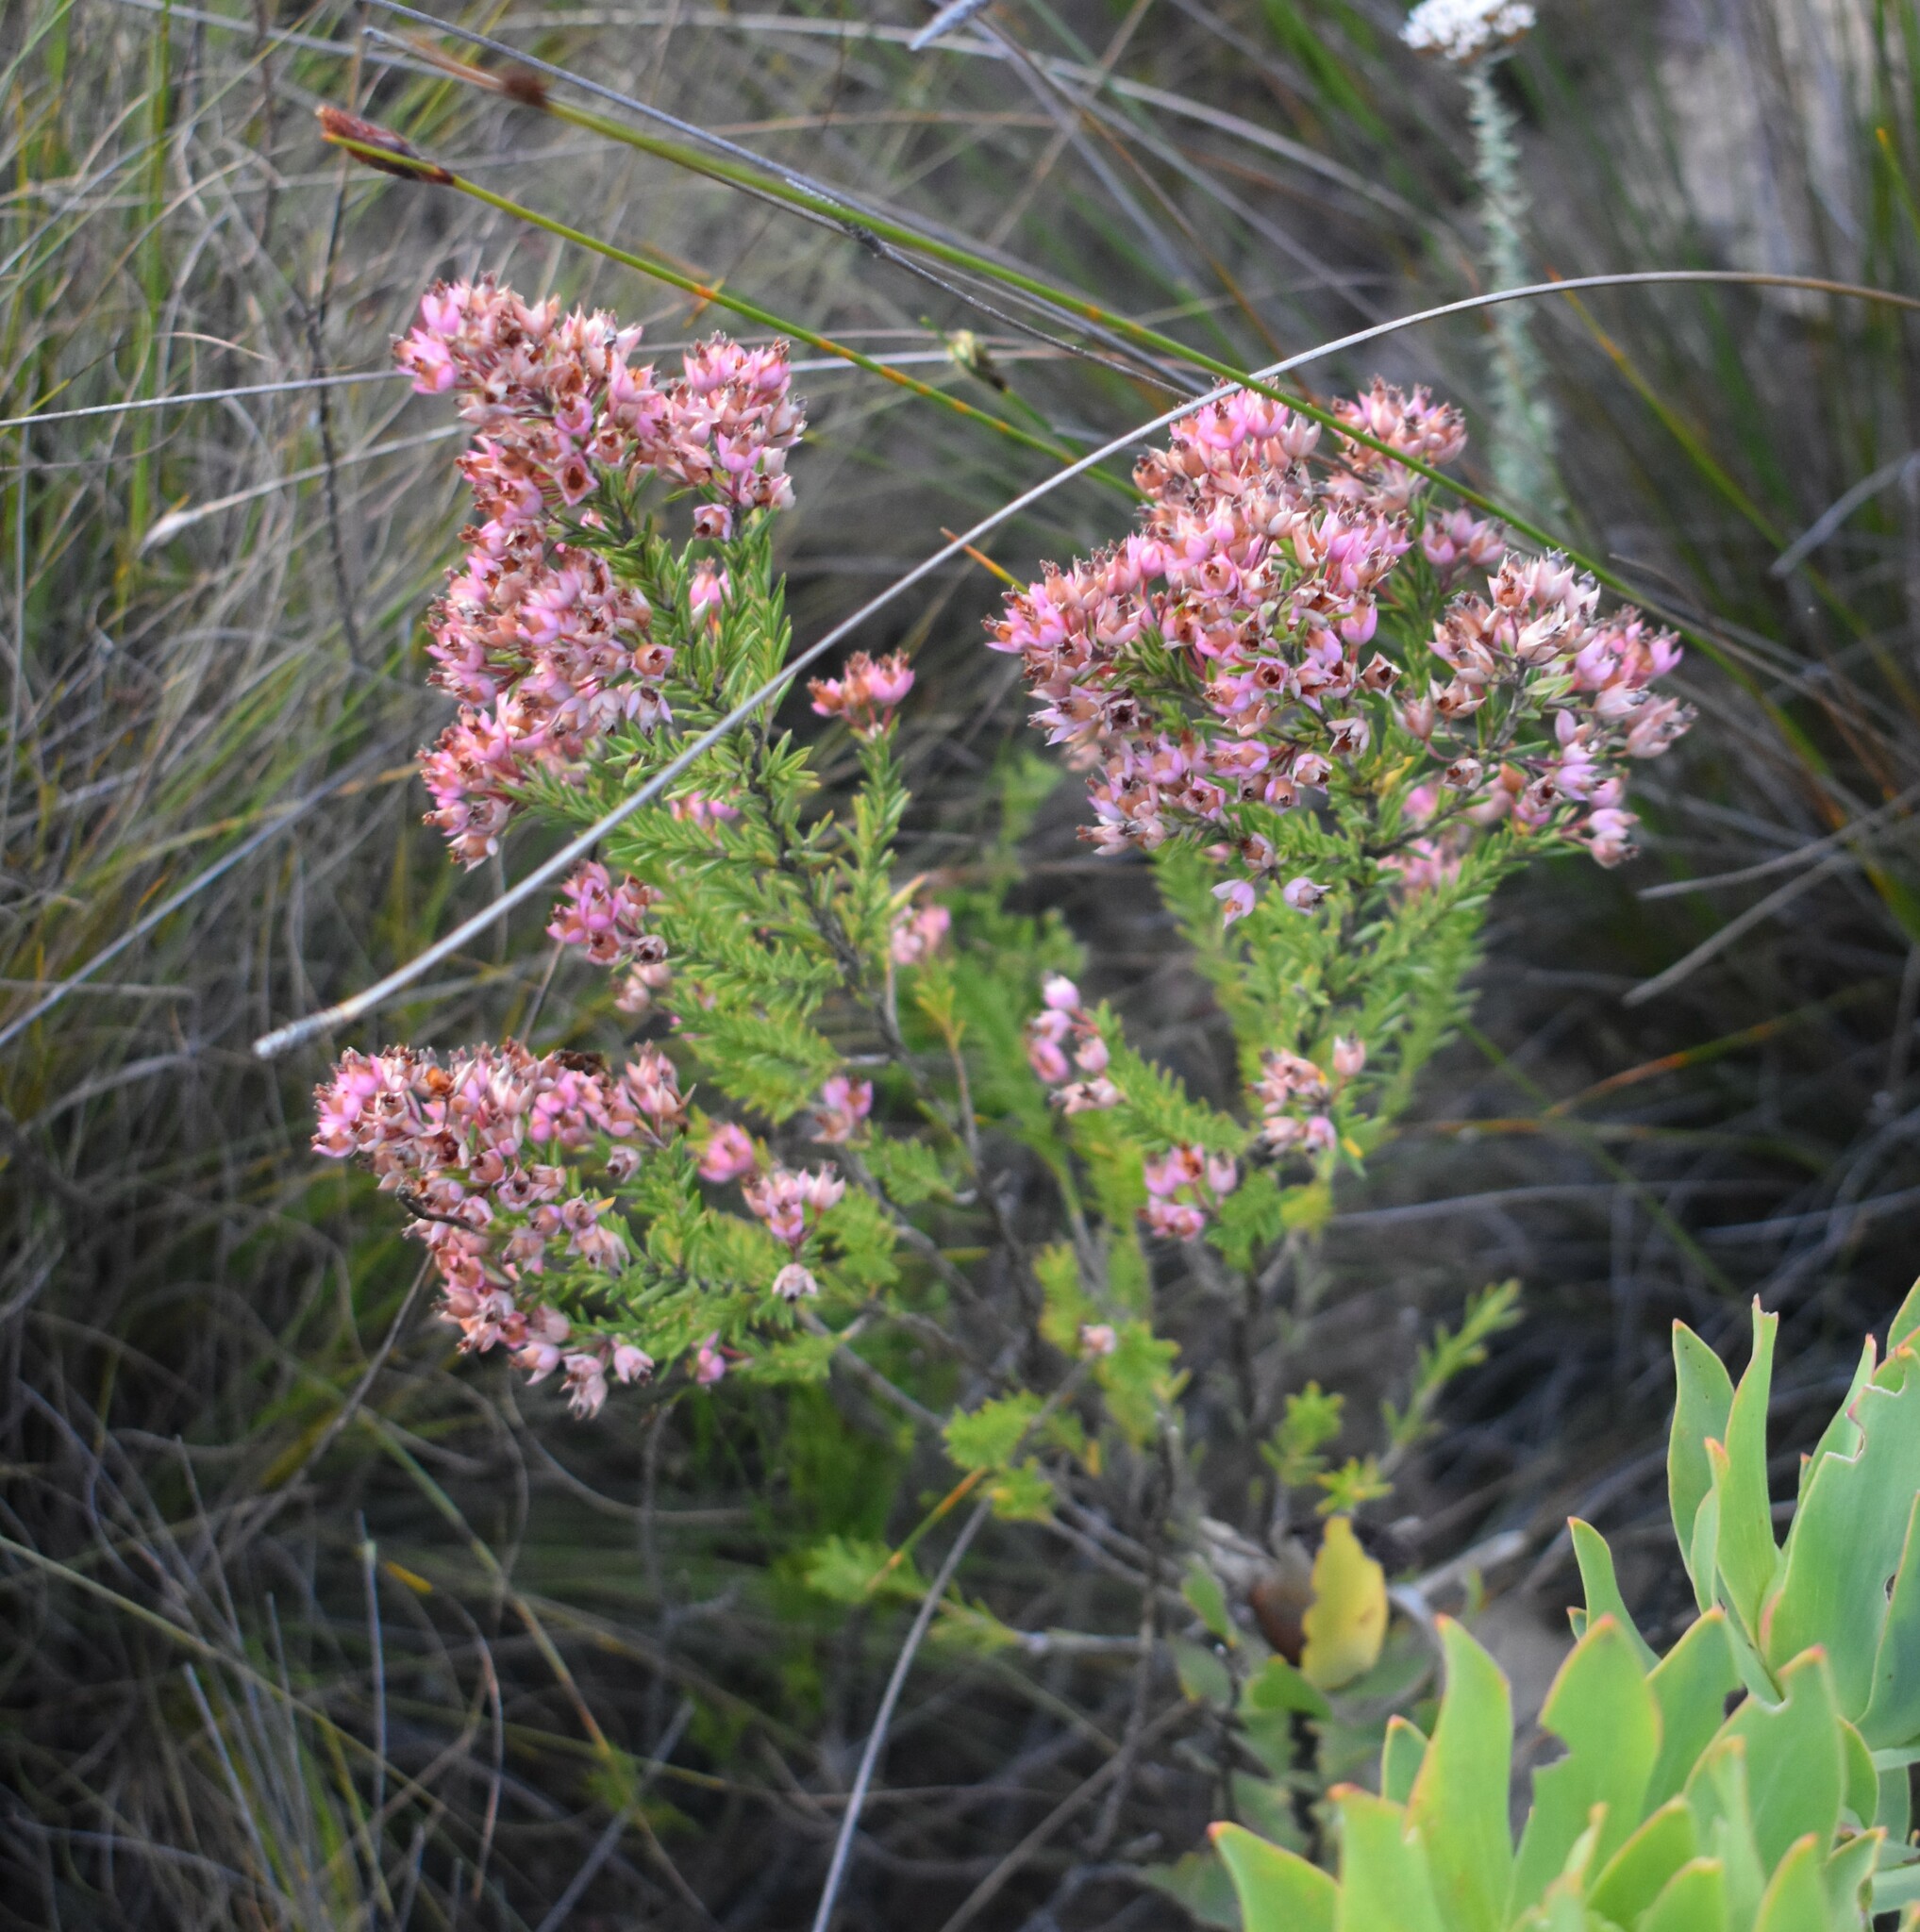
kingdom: Plantae
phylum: Tracheophyta
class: Magnoliopsida
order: Ericales
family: Ericaceae
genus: Erica
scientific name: Erica taxifolia
